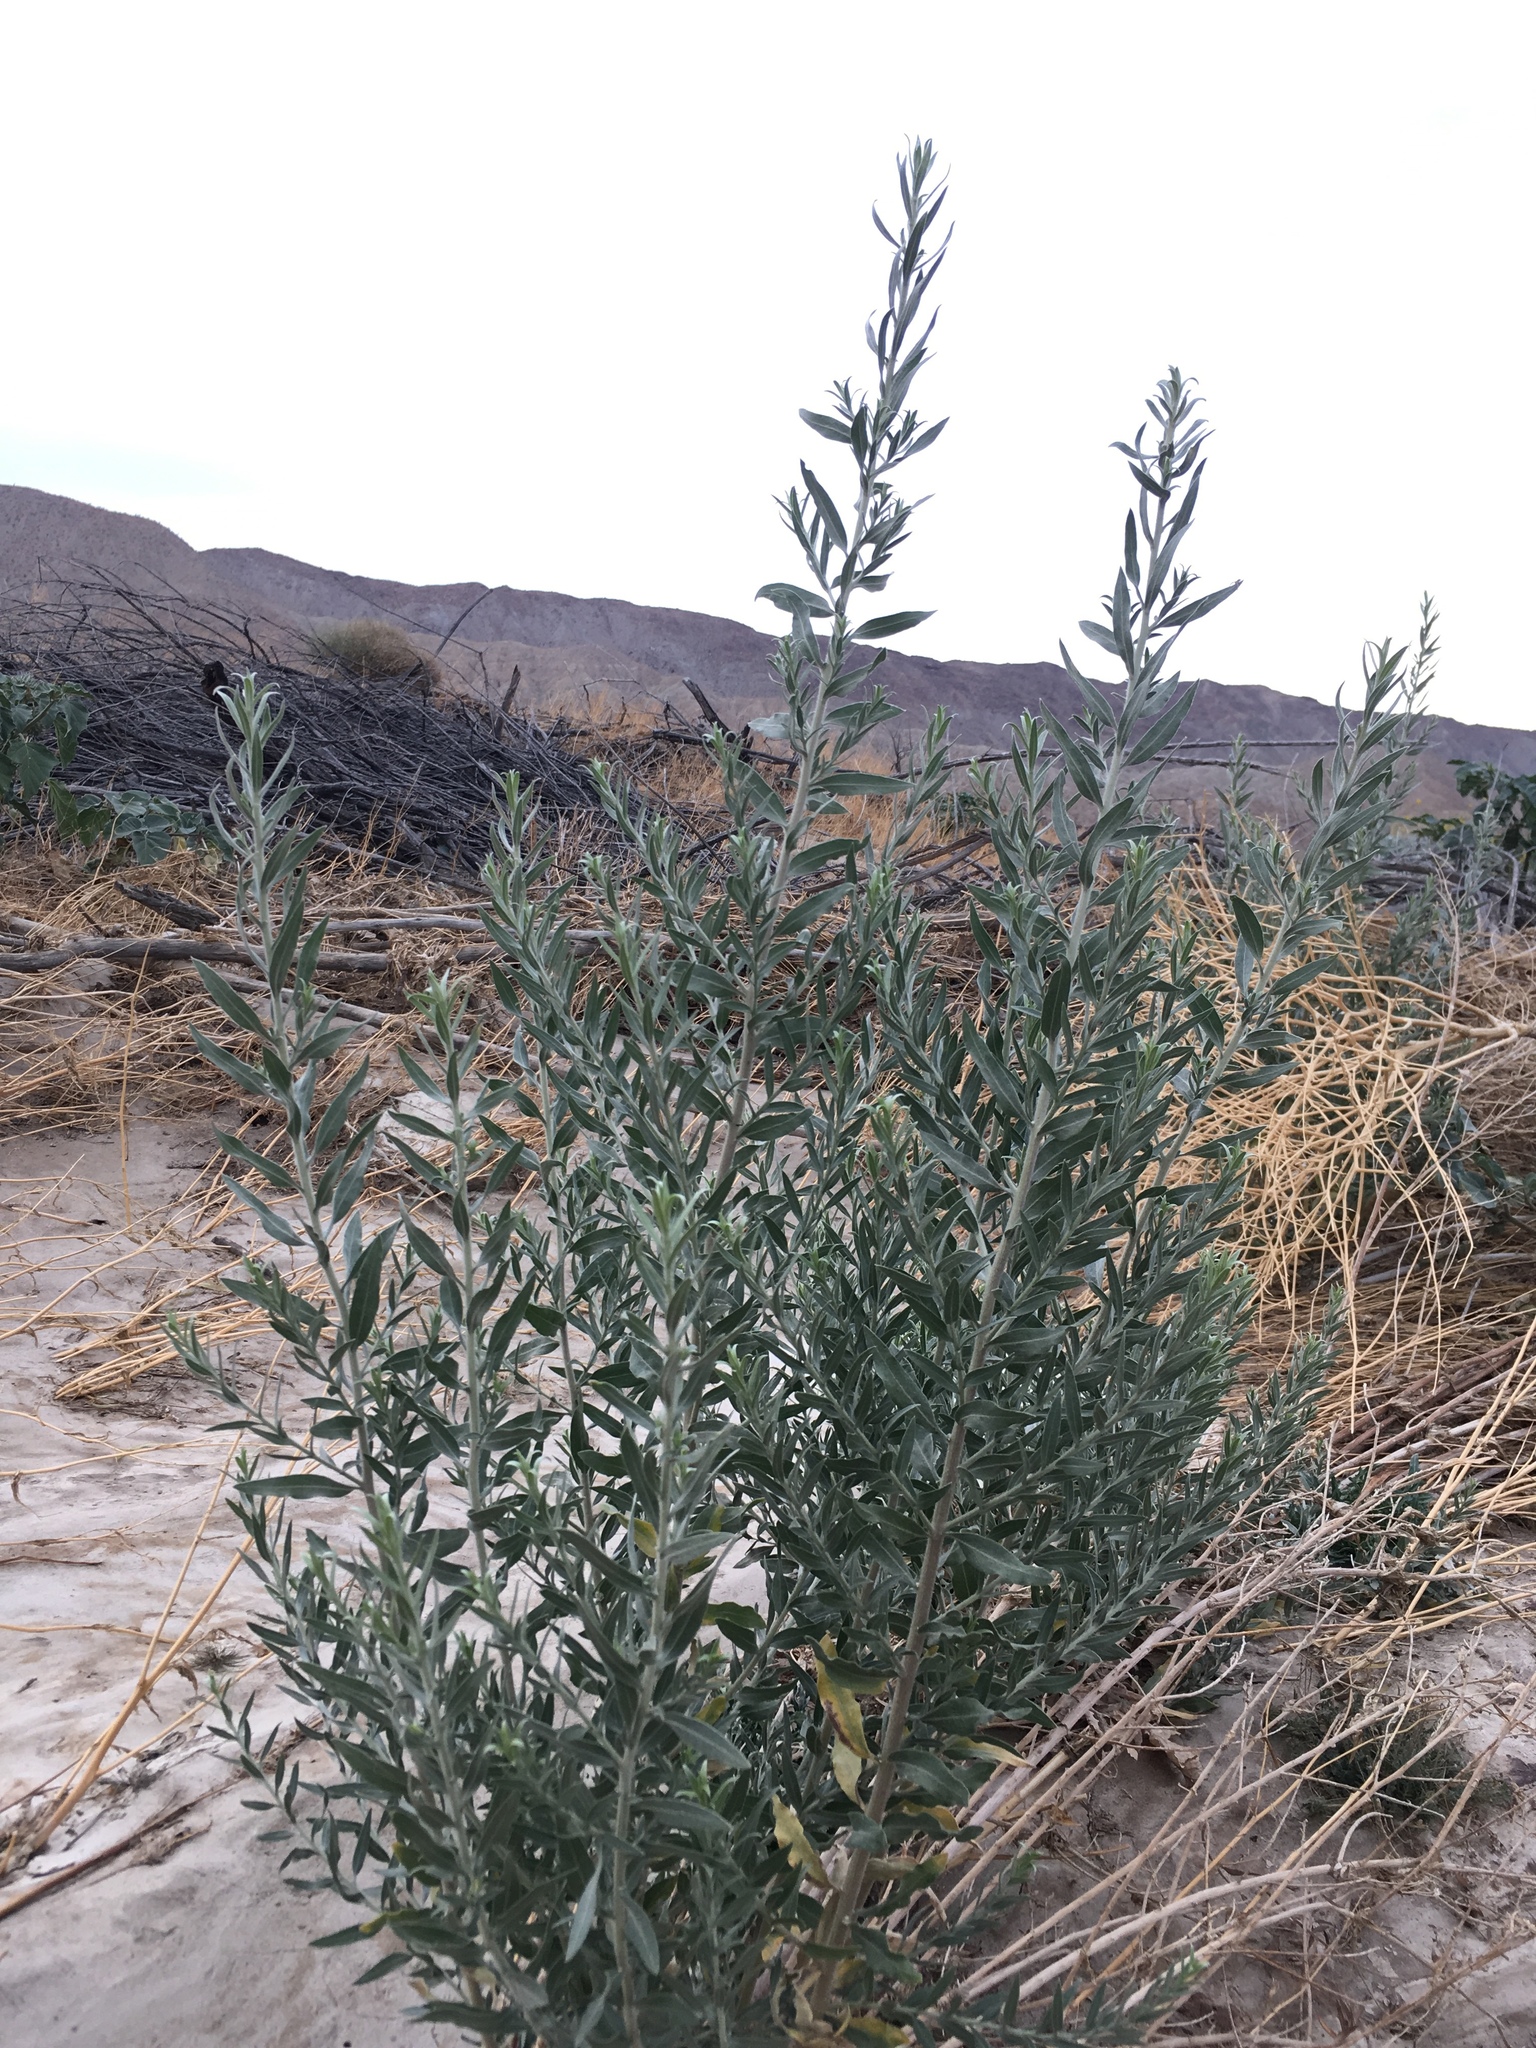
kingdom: Plantae
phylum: Tracheophyta
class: Magnoliopsida
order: Asterales
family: Asteraceae
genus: Pluchea
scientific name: Pluchea sericea
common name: Arrow-weed
